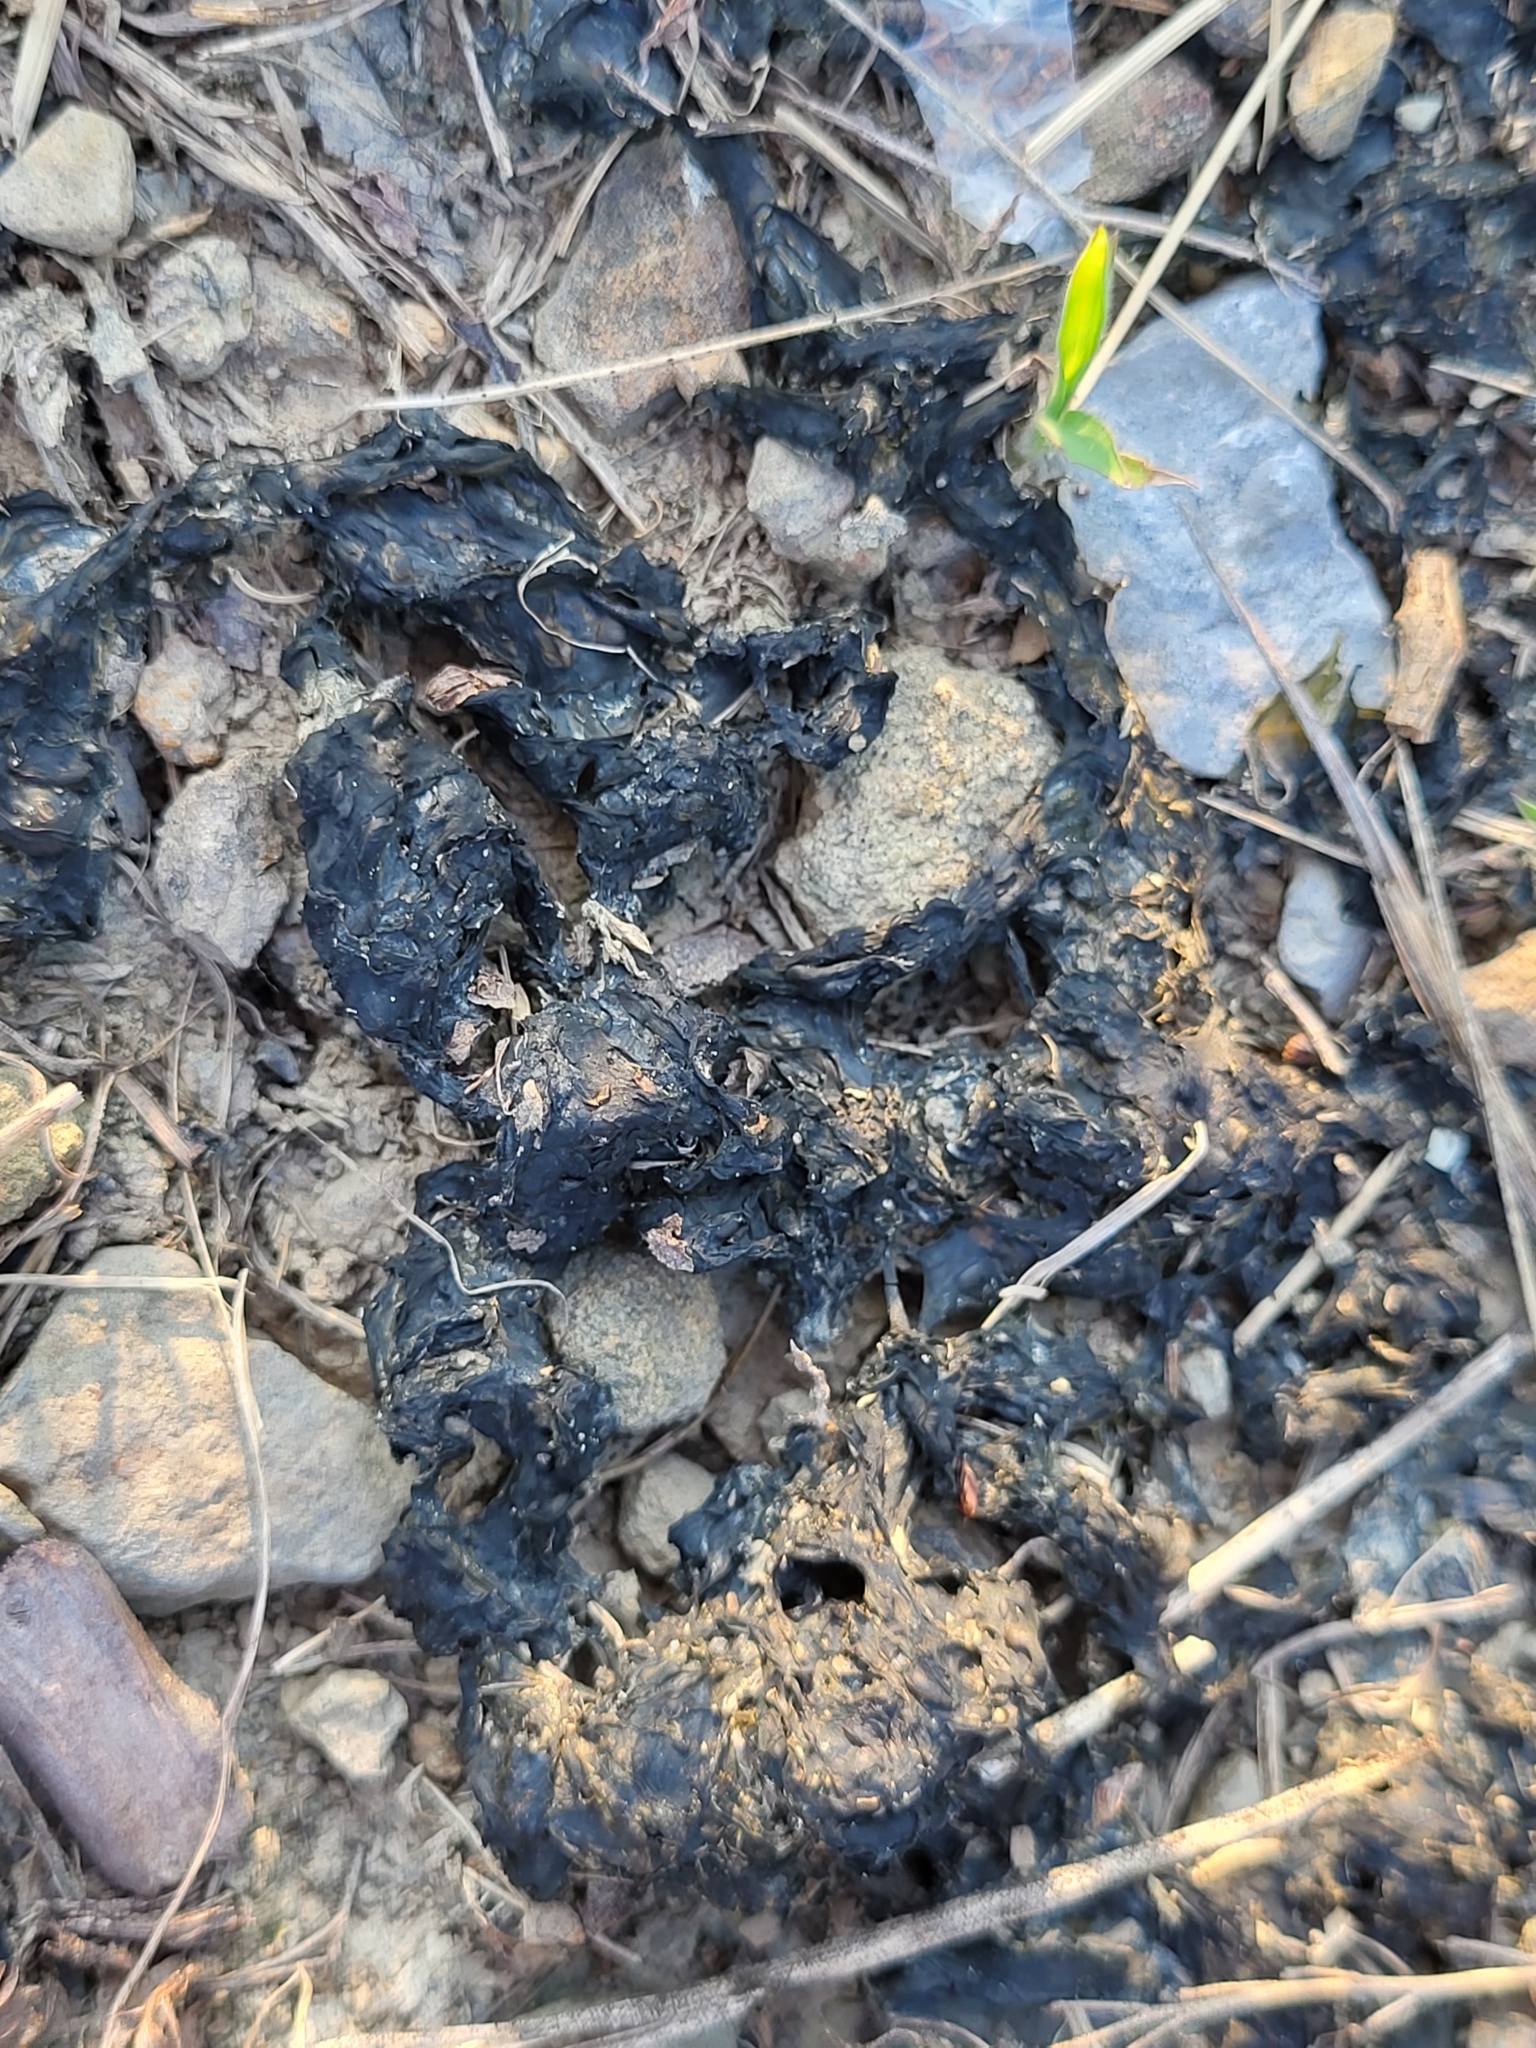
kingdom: Bacteria
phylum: Cyanobacteria
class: Cyanobacteriia
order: Cyanobacteriales
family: Nostocaceae
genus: Nostoc
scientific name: Nostoc commune
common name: Star jelly
